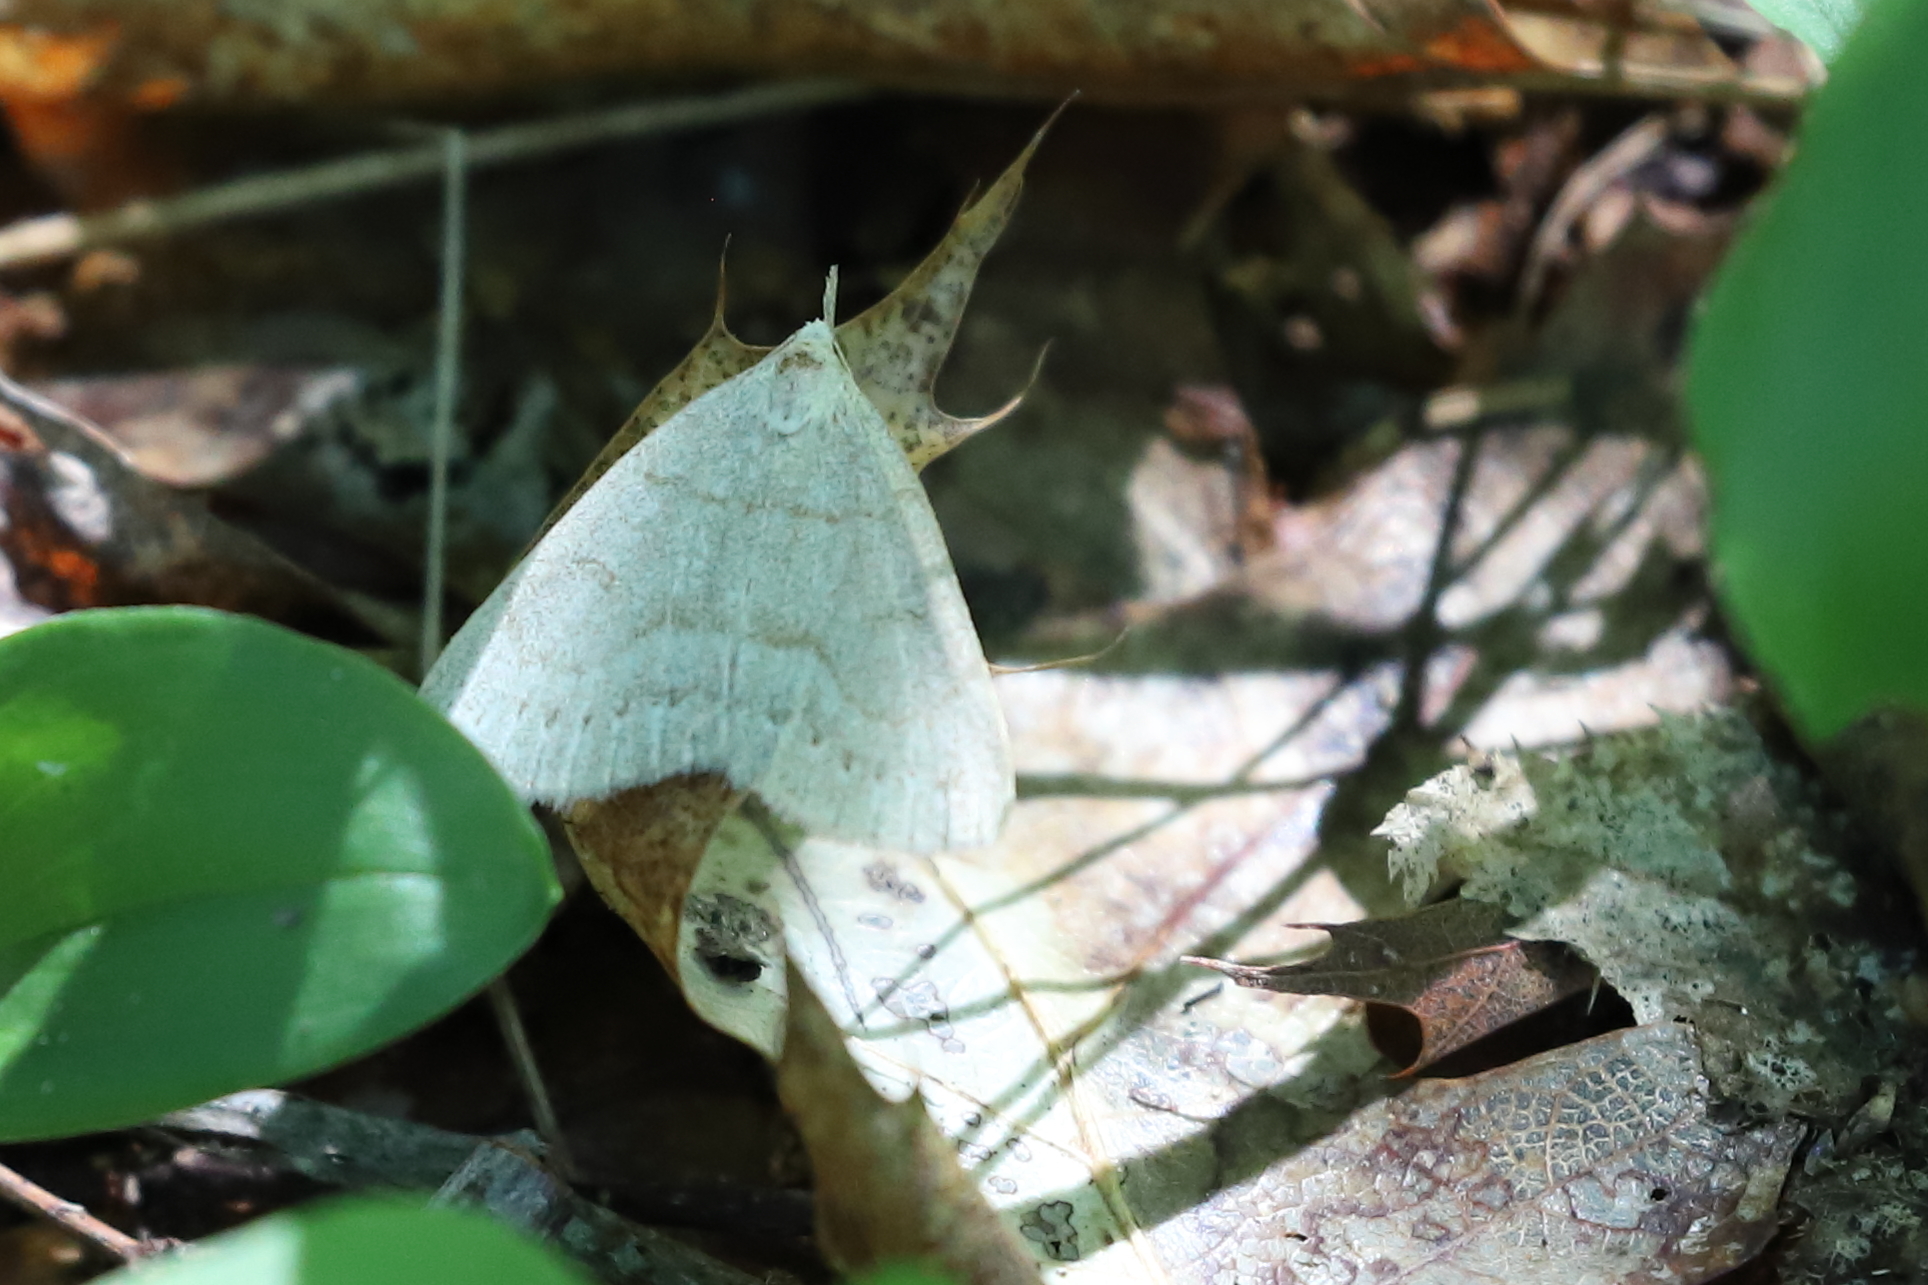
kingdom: Animalia
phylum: Arthropoda
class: Insecta
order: Lepidoptera
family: Erebidae
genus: Macrochilo
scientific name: Macrochilo morbidalis
